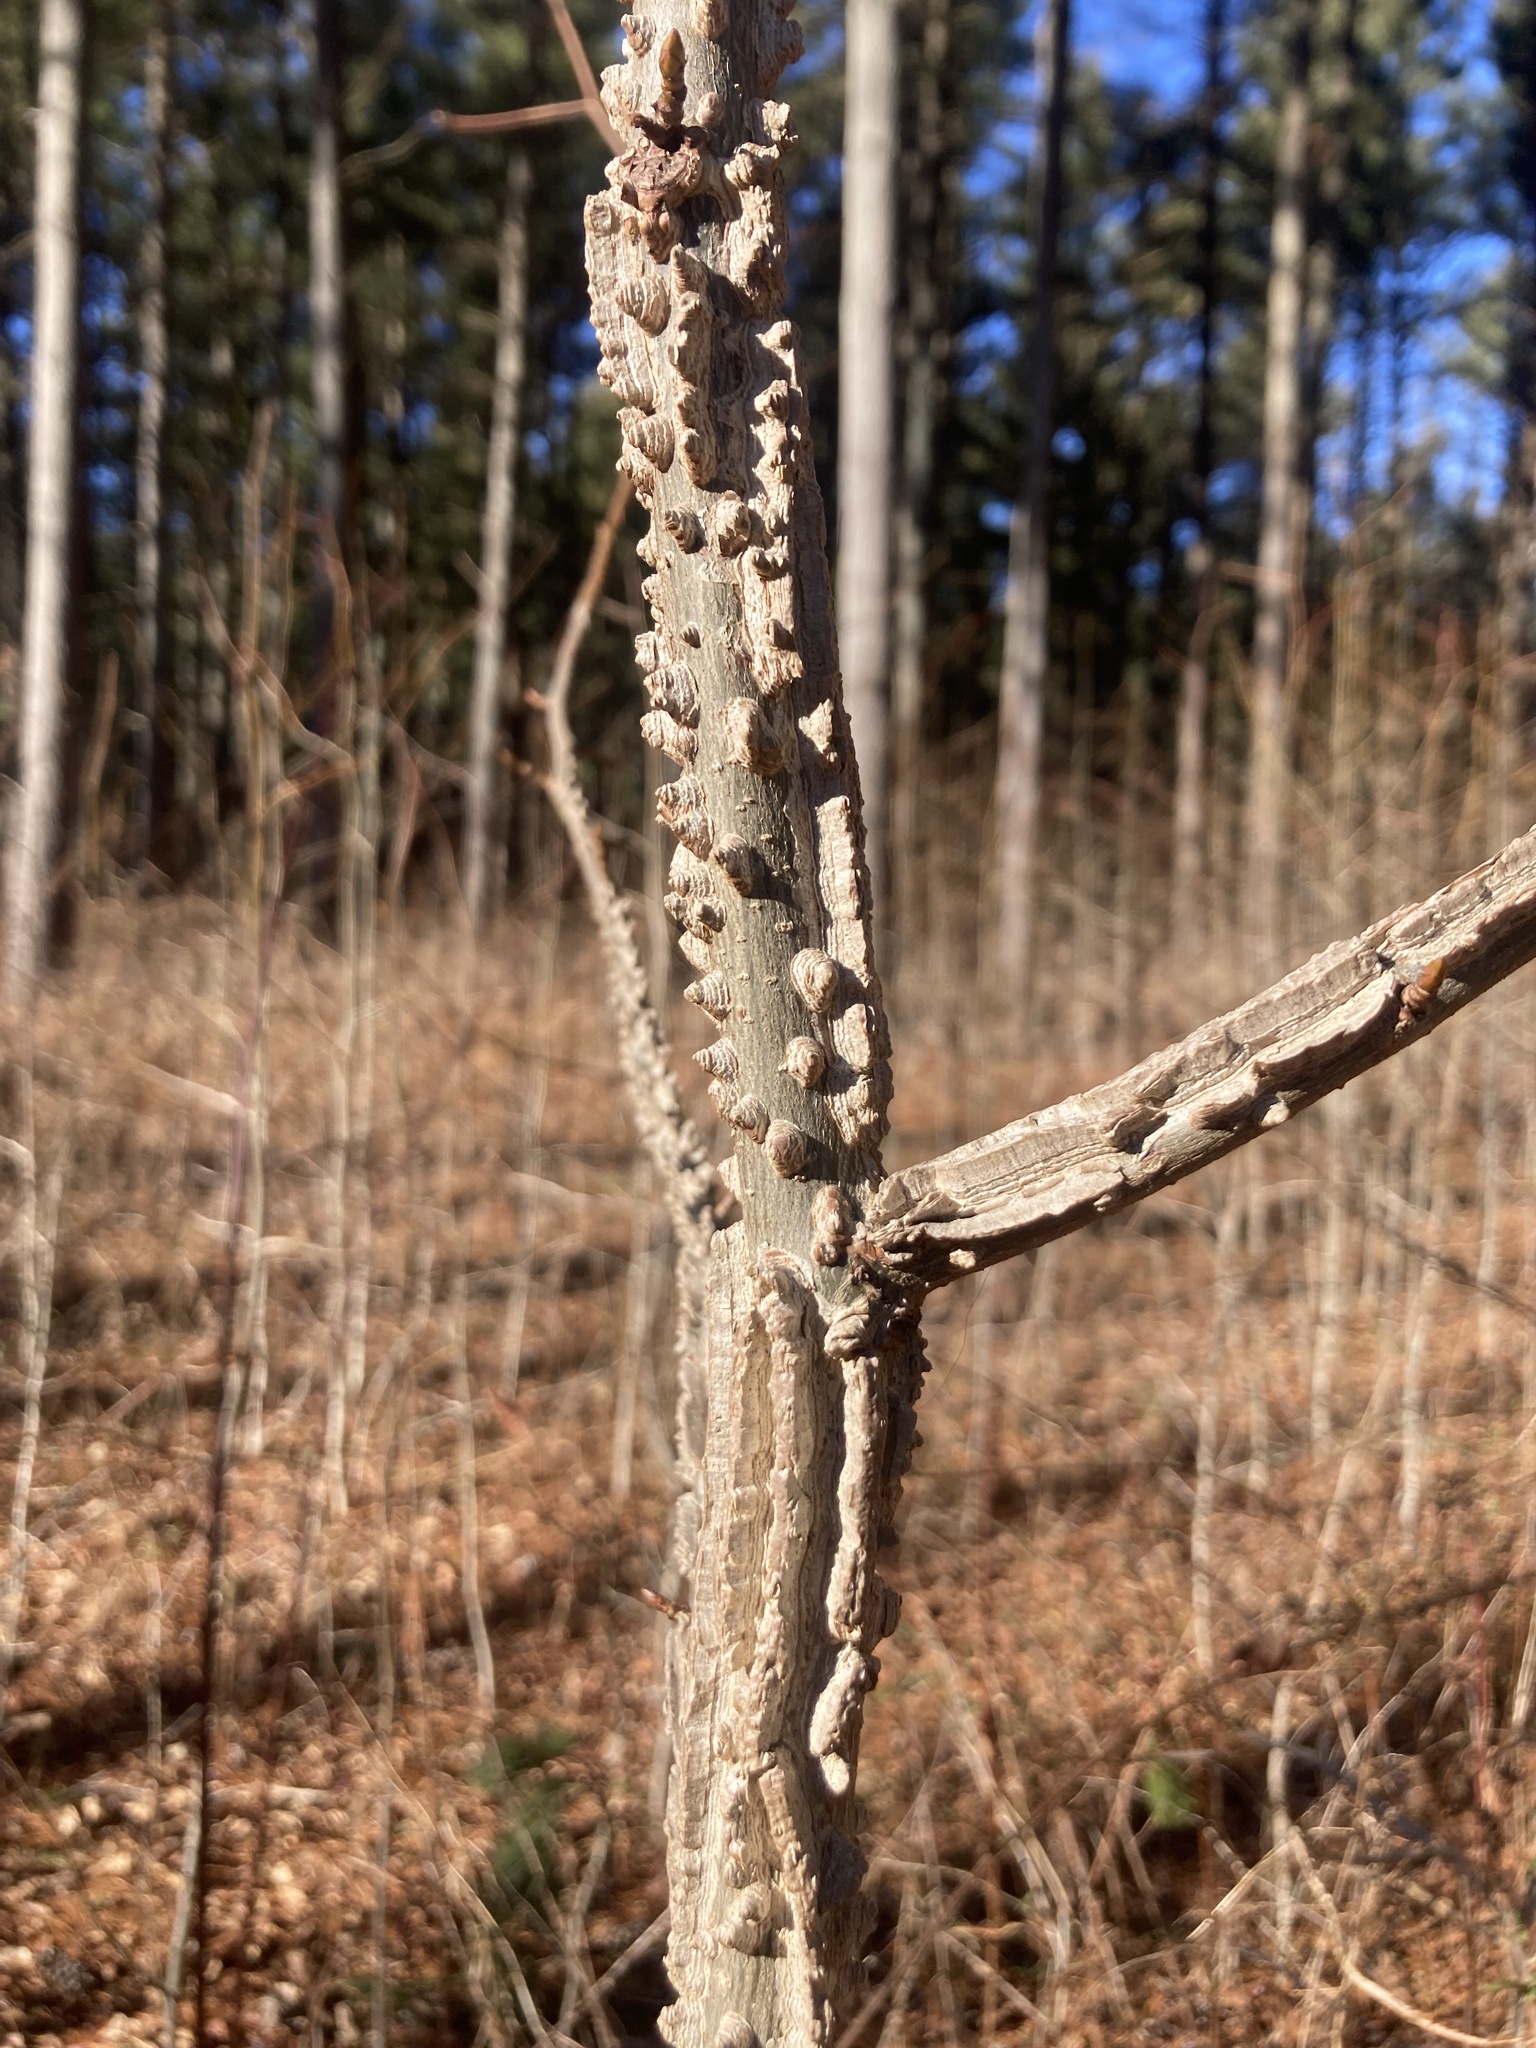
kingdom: Plantae
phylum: Tracheophyta
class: Magnoliopsida
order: Saxifragales
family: Altingiaceae
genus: Liquidambar
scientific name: Liquidambar styraciflua
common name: Sweet gum
